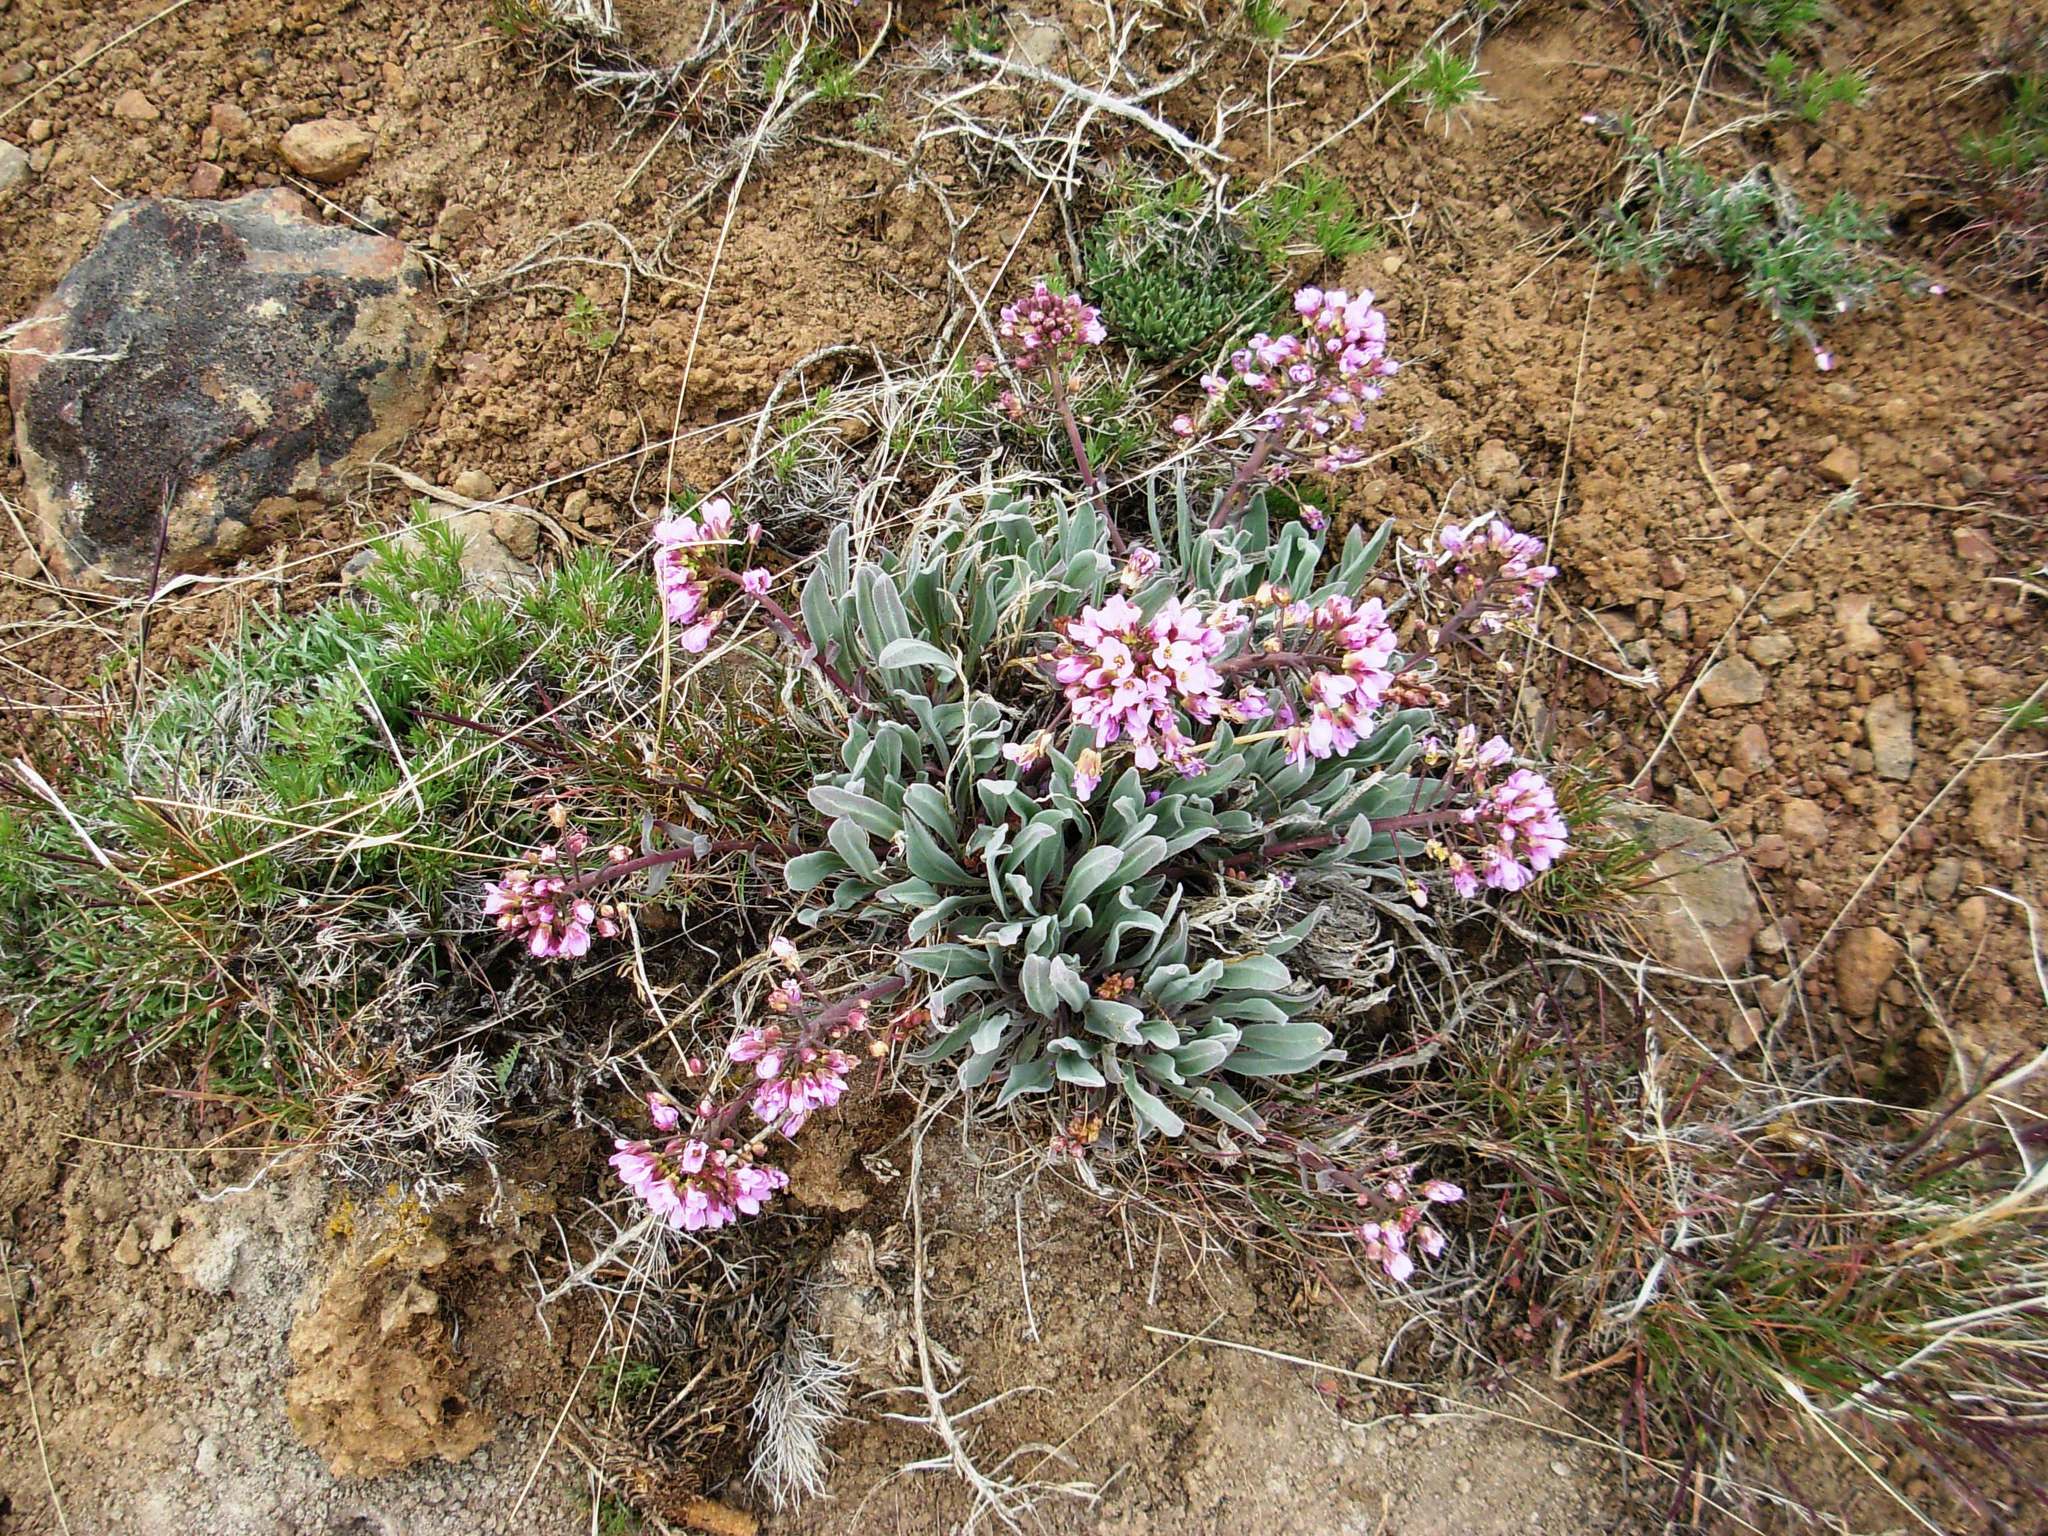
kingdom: Plantae
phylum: Tracheophyta
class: Magnoliopsida
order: Brassicales
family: Brassicaceae
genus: Phoenicaulis
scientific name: Phoenicaulis cheiranthoides
